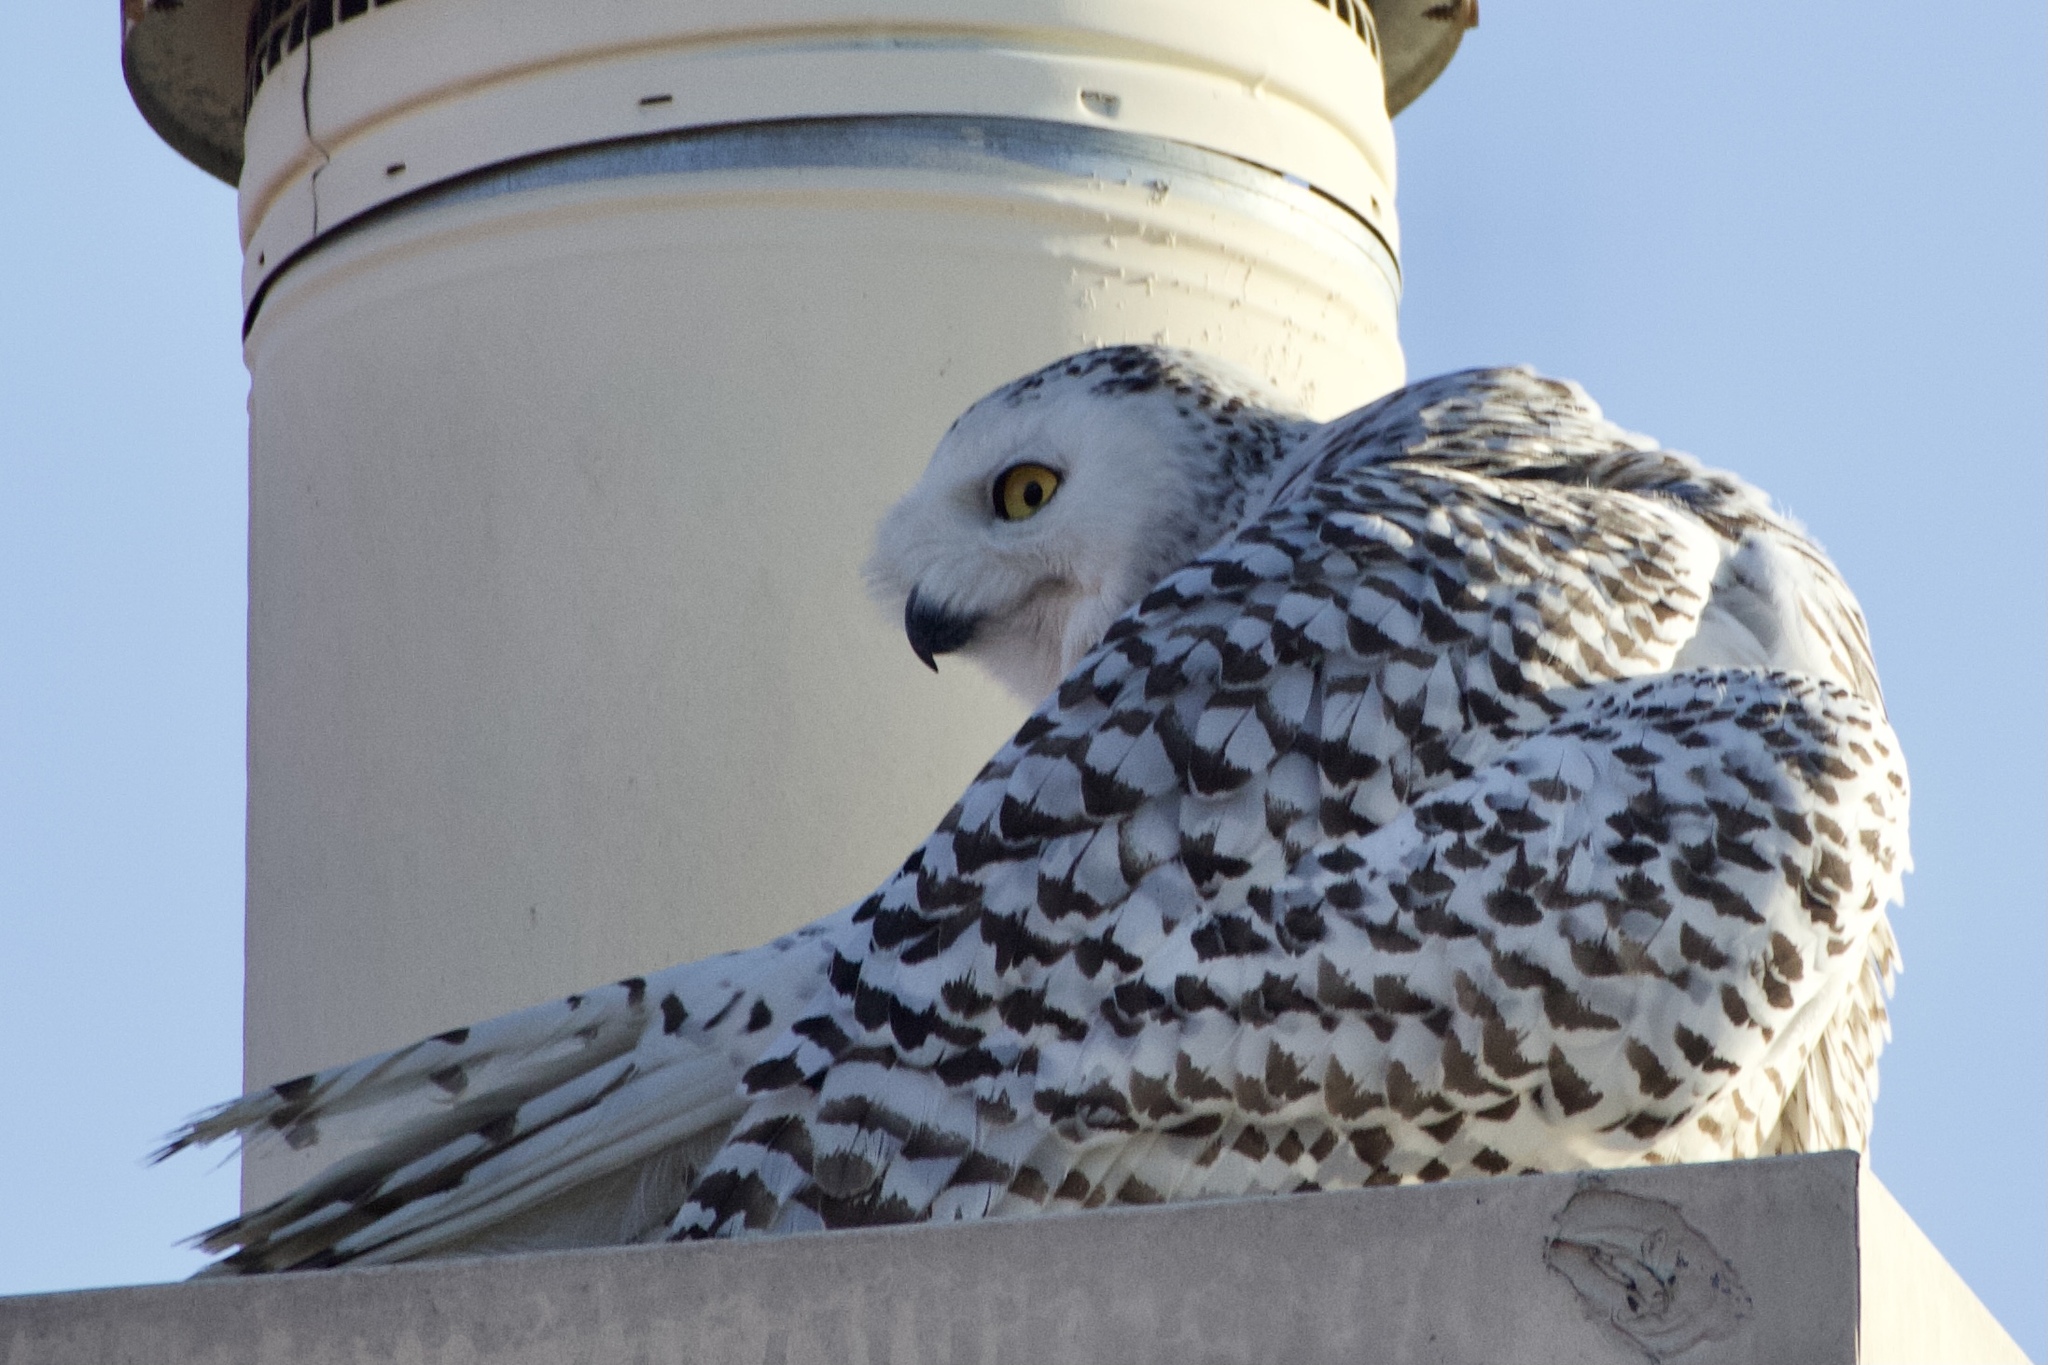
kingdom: Animalia
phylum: Chordata
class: Aves
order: Strigiformes
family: Strigidae
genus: Bubo
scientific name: Bubo scandiacus
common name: Snowy owl
